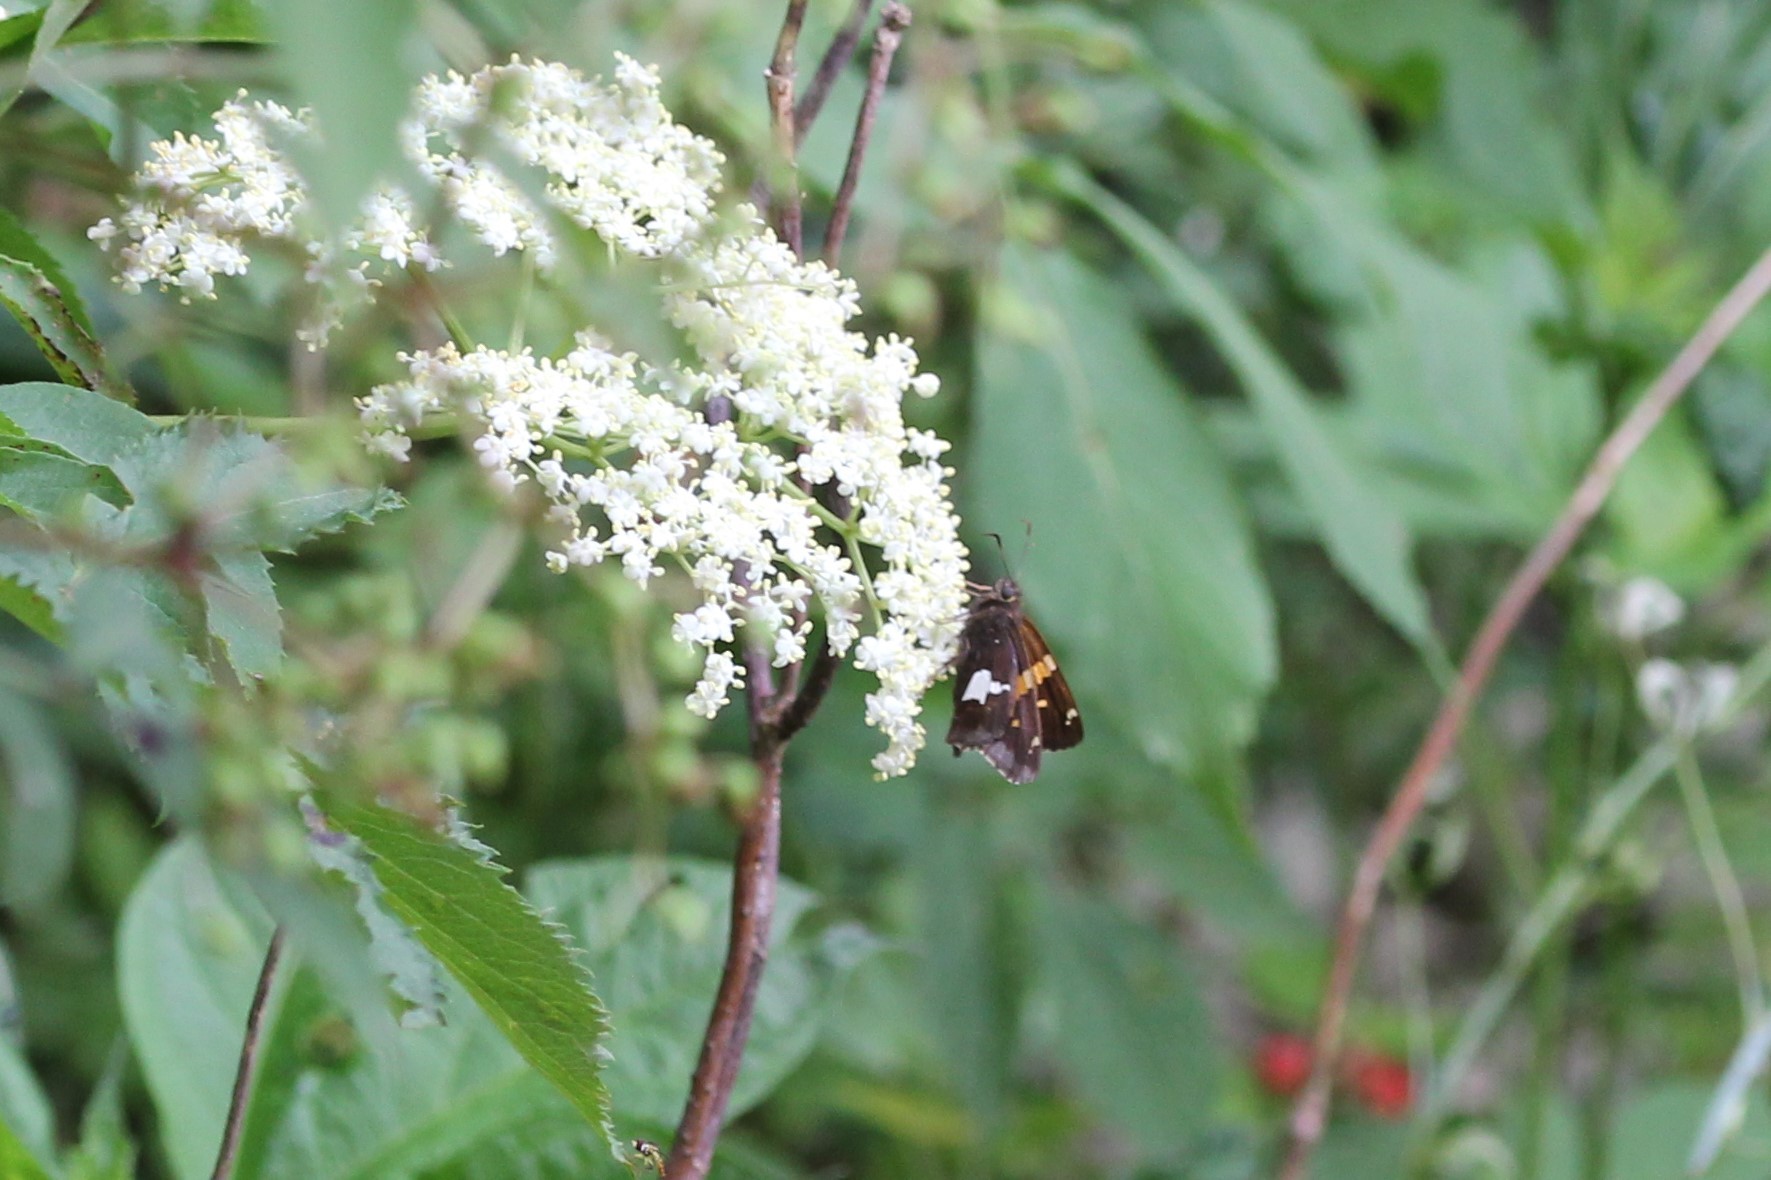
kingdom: Animalia
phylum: Arthropoda
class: Insecta
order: Lepidoptera
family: Hesperiidae
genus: Epargyreus
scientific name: Epargyreus clarus
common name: Silver-spotted skipper
